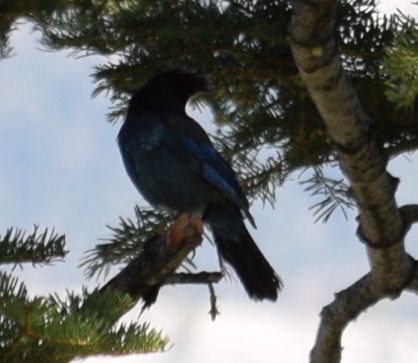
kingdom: Animalia
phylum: Chordata
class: Aves
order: Passeriformes
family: Corvidae
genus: Cyanocitta
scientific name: Cyanocitta stelleri
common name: Steller's jay
